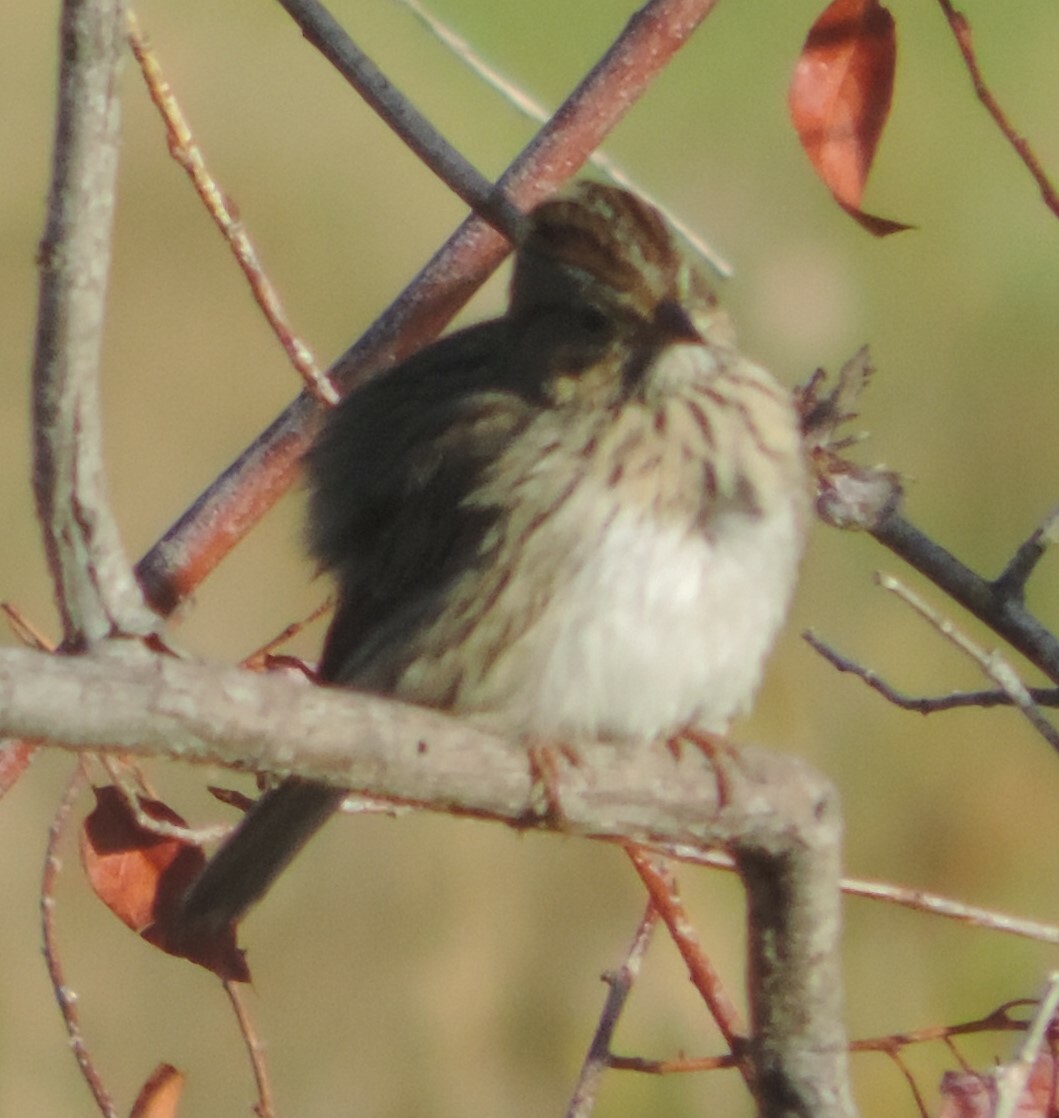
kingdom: Animalia
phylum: Chordata
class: Aves
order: Passeriformes
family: Passerellidae
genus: Melospiza
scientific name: Melospiza lincolnii
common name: Lincoln's sparrow
